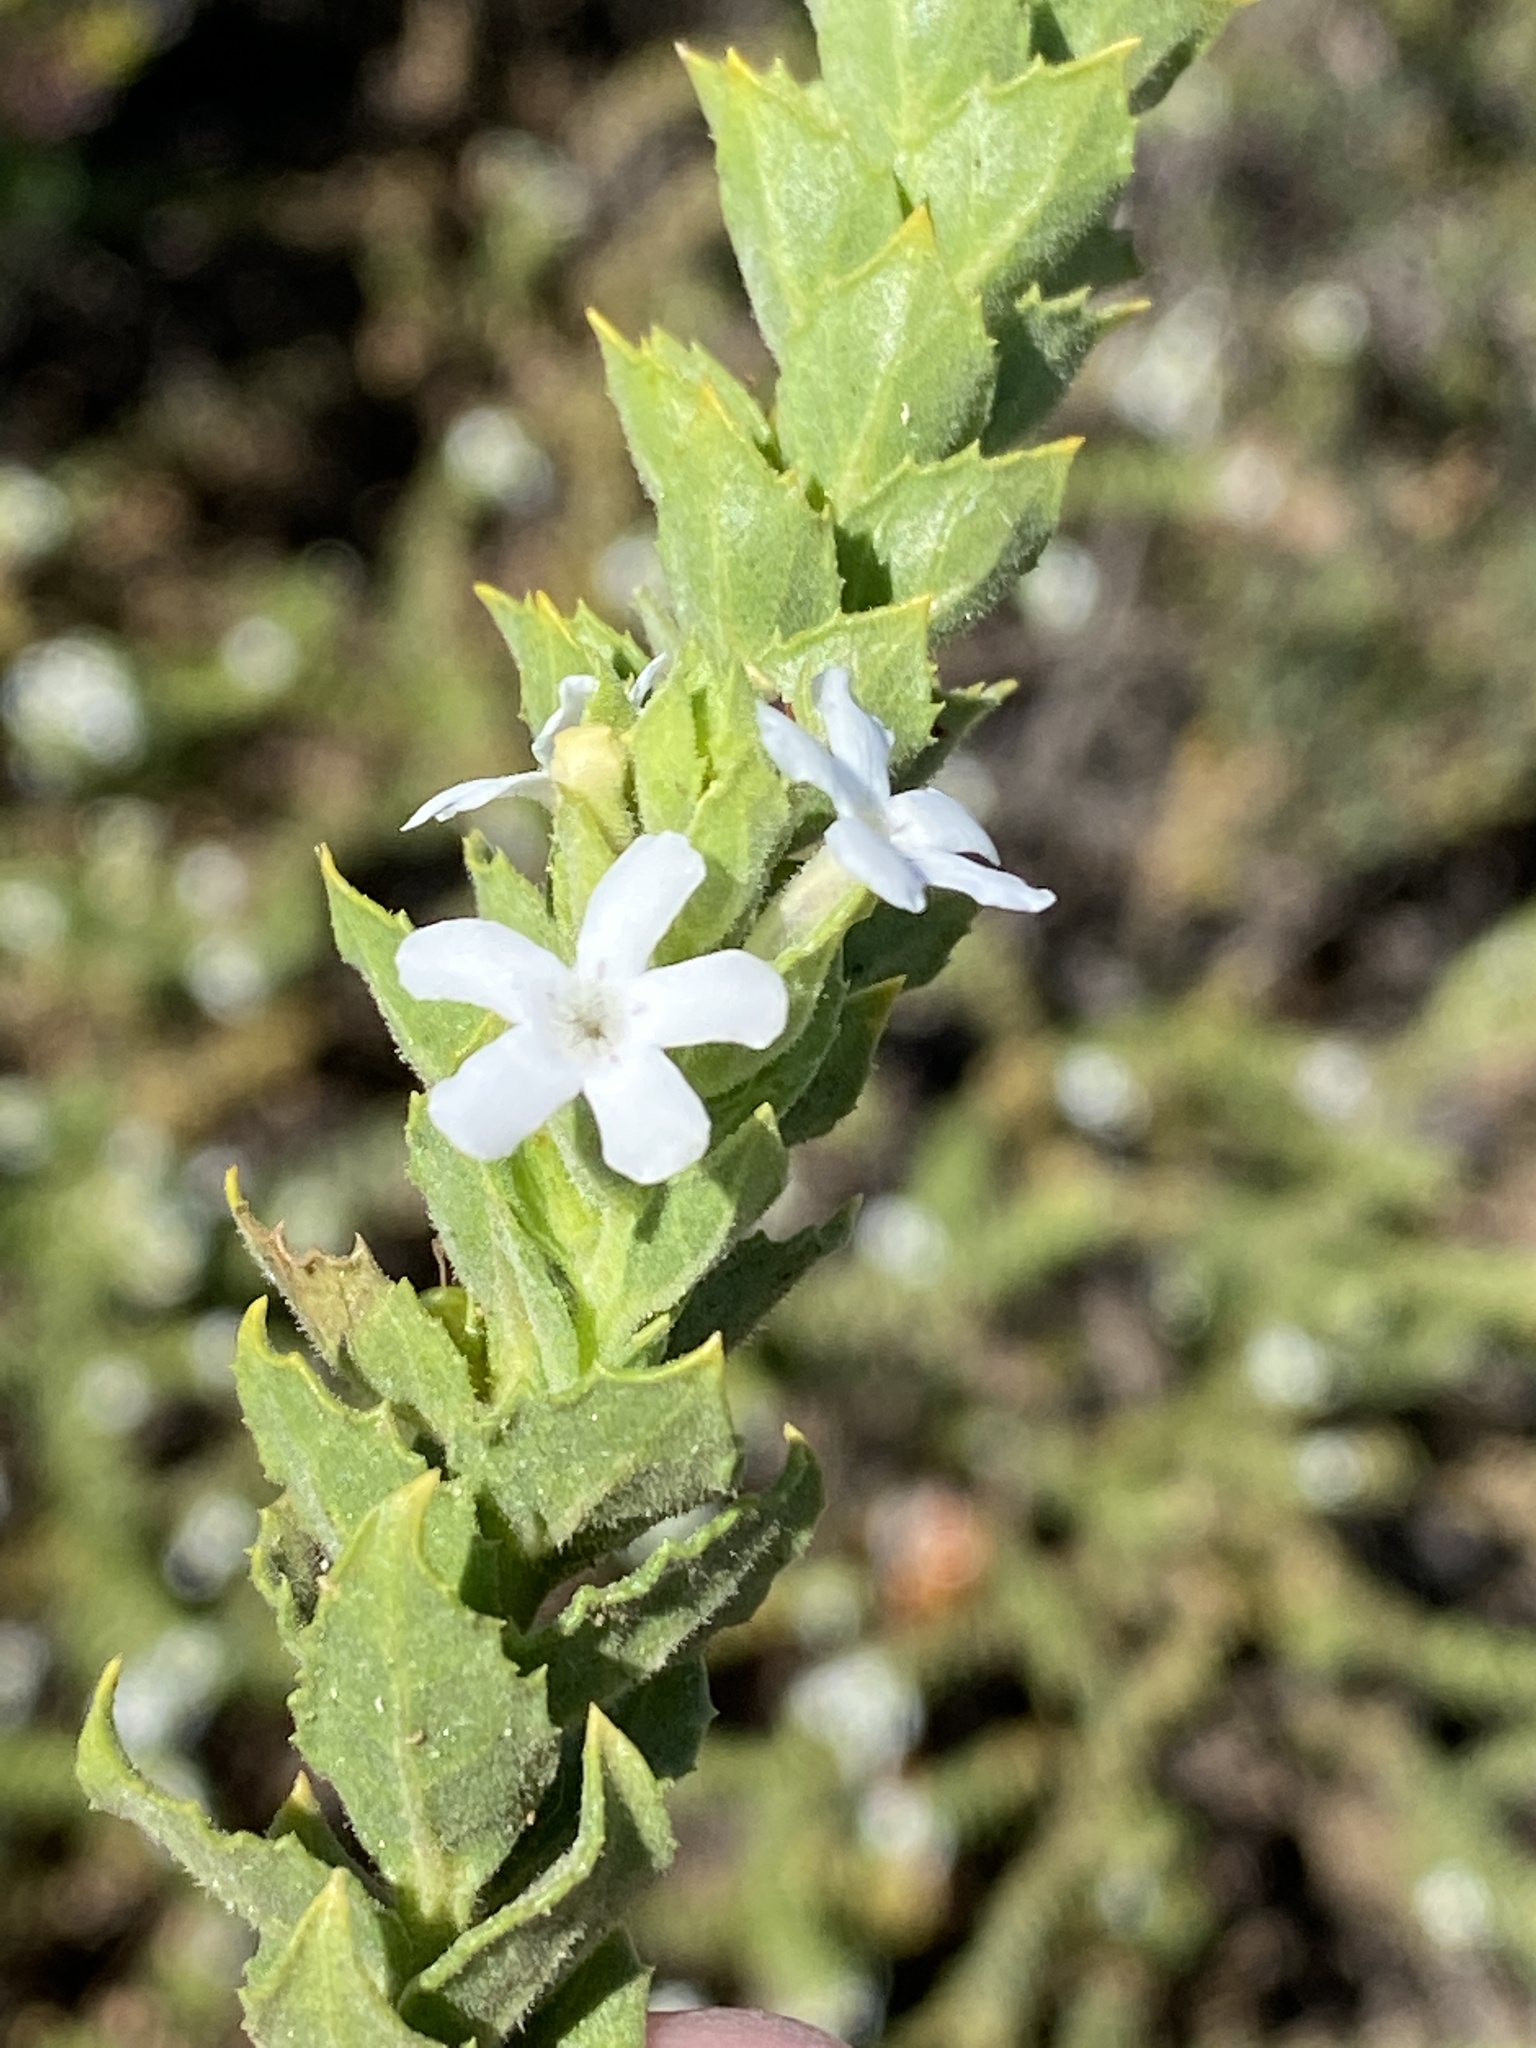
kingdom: Plantae
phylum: Tracheophyta
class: Magnoliopsida
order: Lamiales
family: Scrophulariaceae
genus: Oftia
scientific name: Oftia africana
